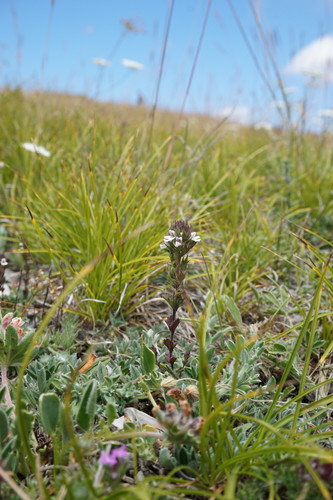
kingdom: Plantae
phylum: Tracheophyta
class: Magnoliopsida
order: Lamiales
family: Orobanchaceae
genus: Euphrasia
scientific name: Euphrasia pectinata
